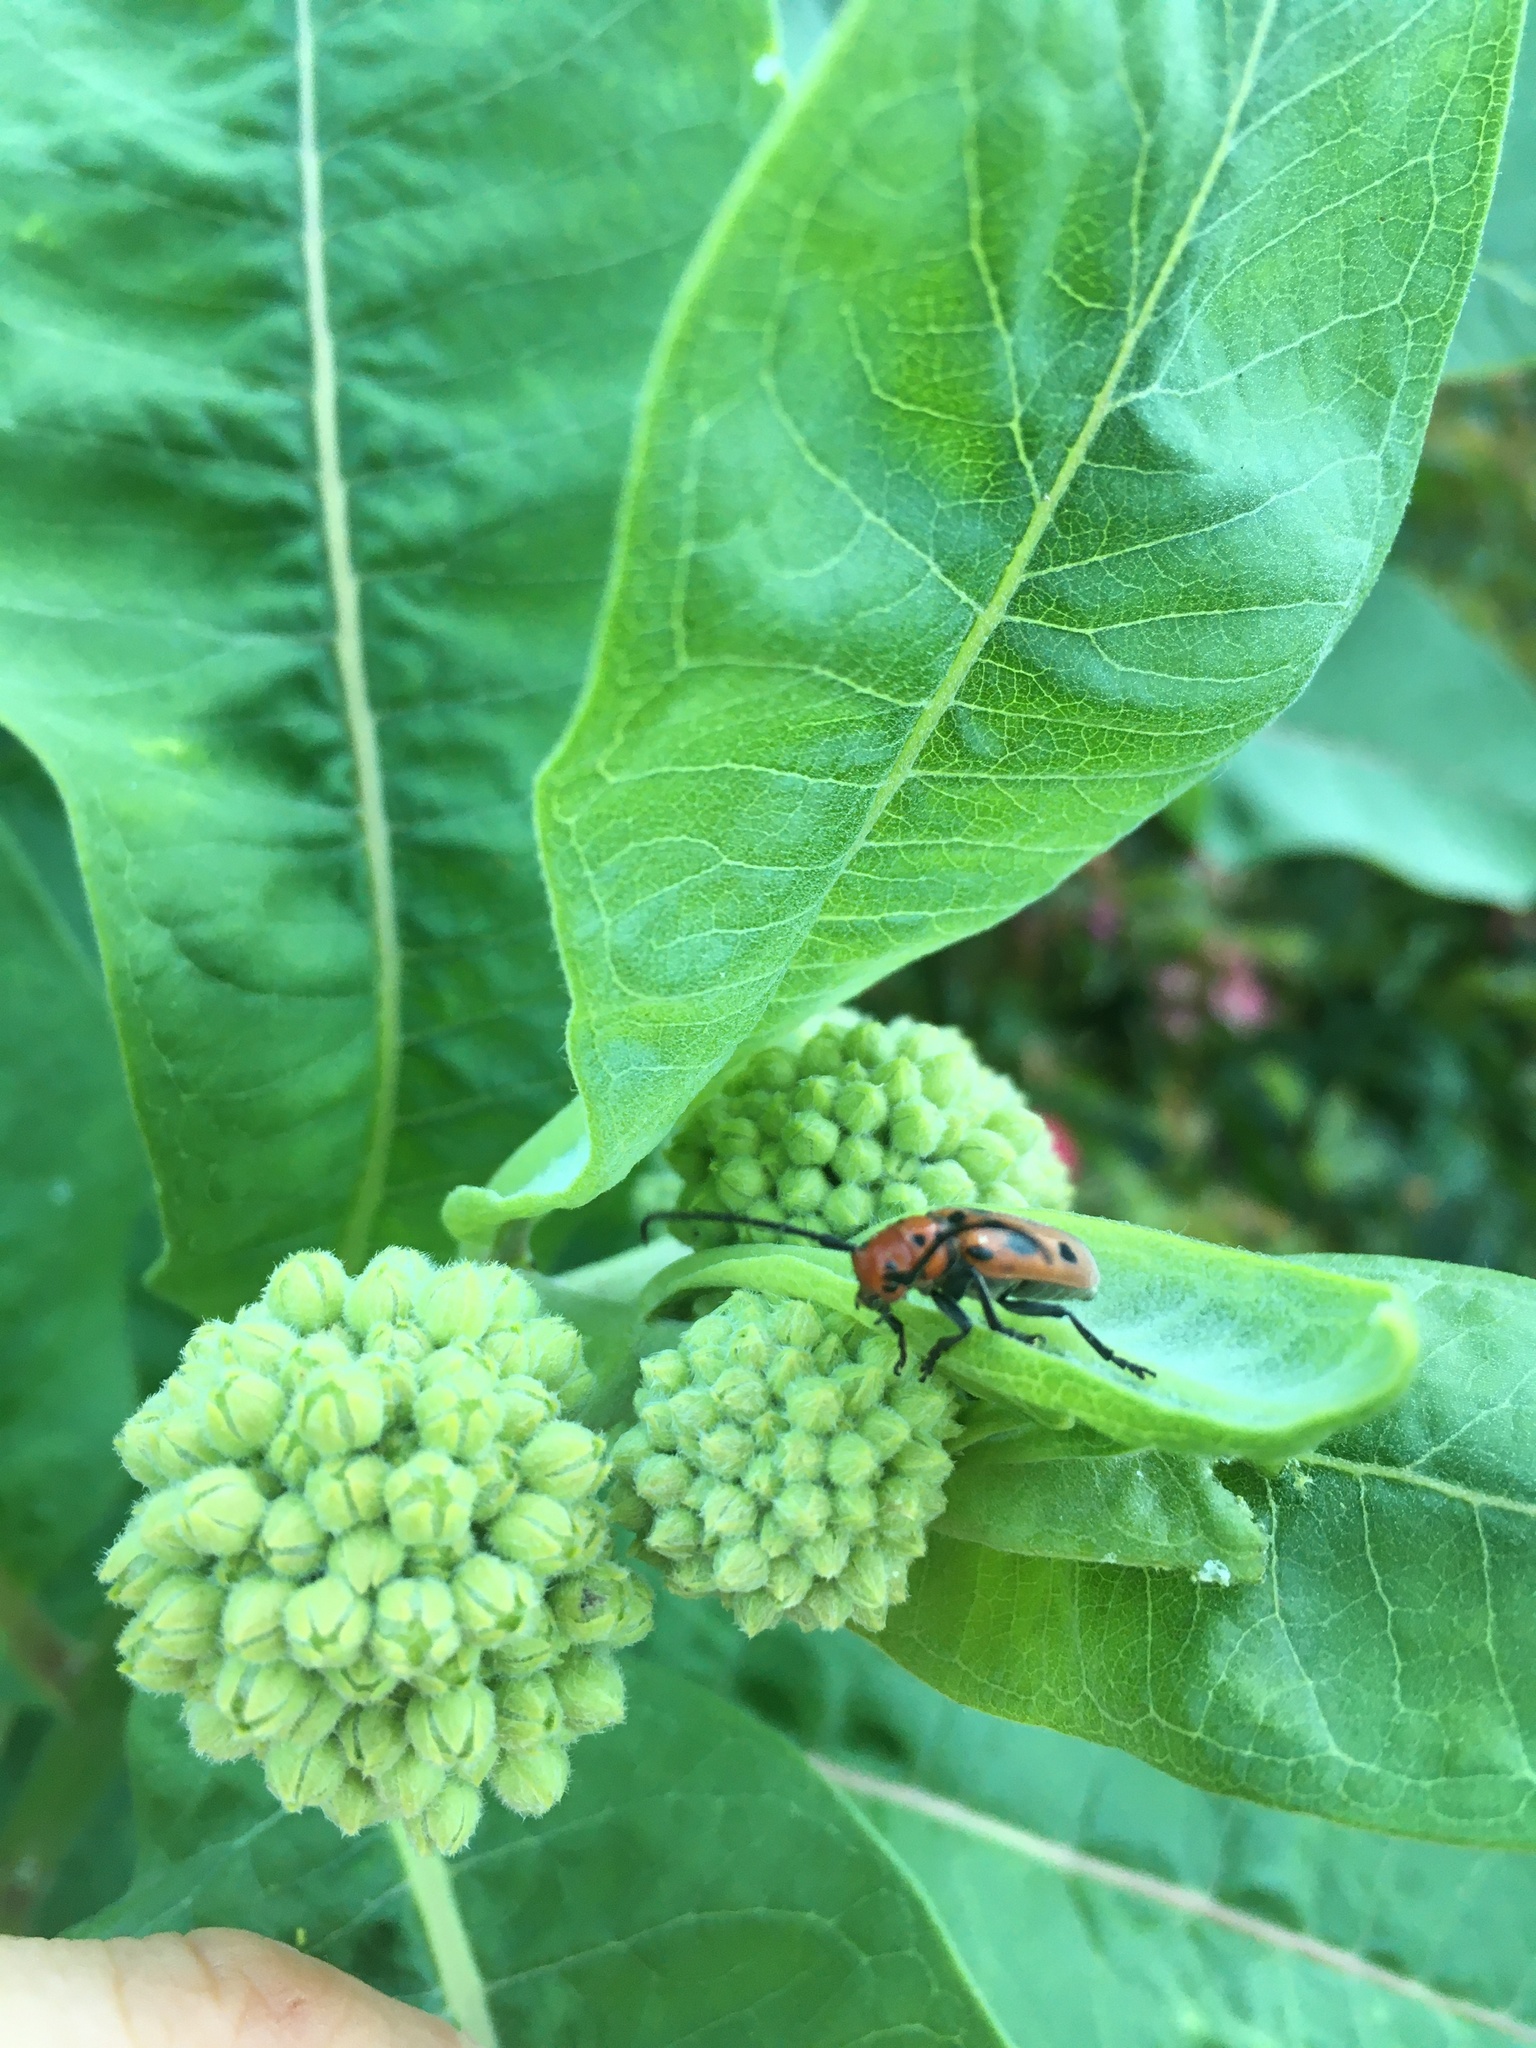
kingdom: Animalia
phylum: Arthropoda
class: Insecta
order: Coleoptera
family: Cerambycidae
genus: Tetraopes
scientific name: Tetraopes tetrophthalmus
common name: Red milkweed beetle
